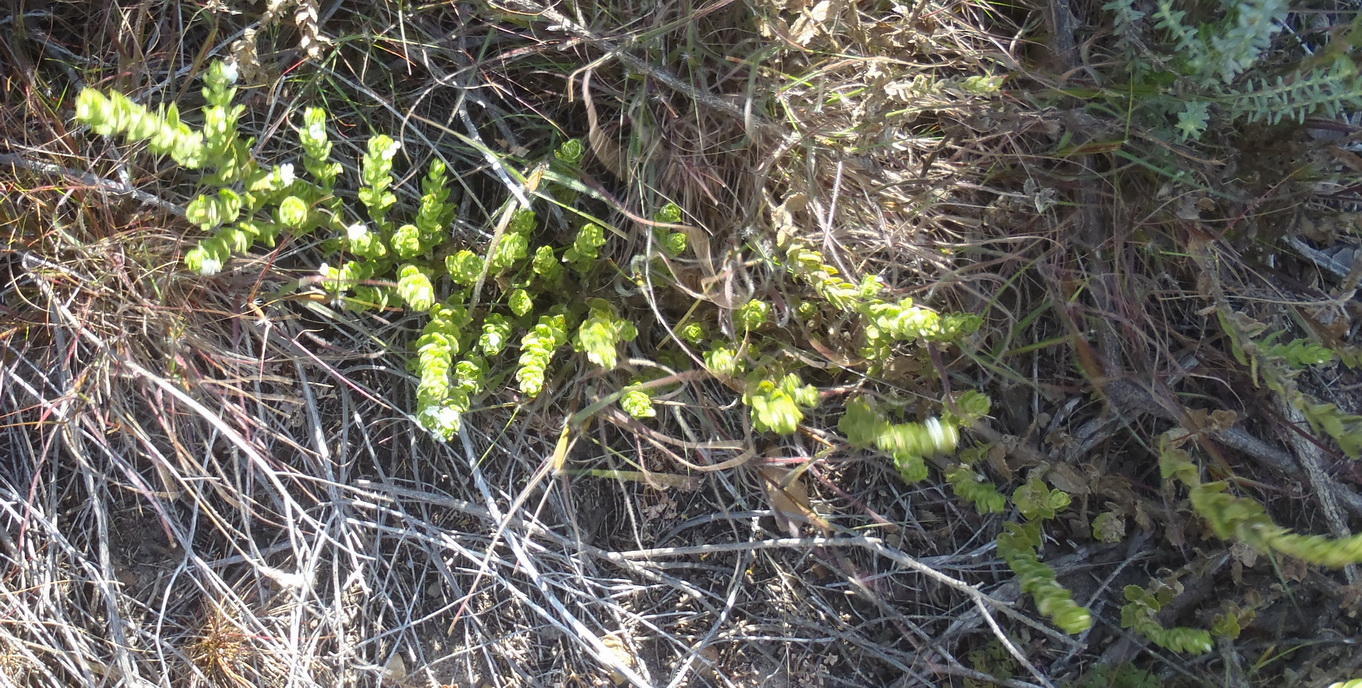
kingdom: Plantae
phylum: Tracheophyta
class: Magnoliopsida
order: Lamiales
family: Scrophulariaceae
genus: Oftia
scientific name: Oftia africana
